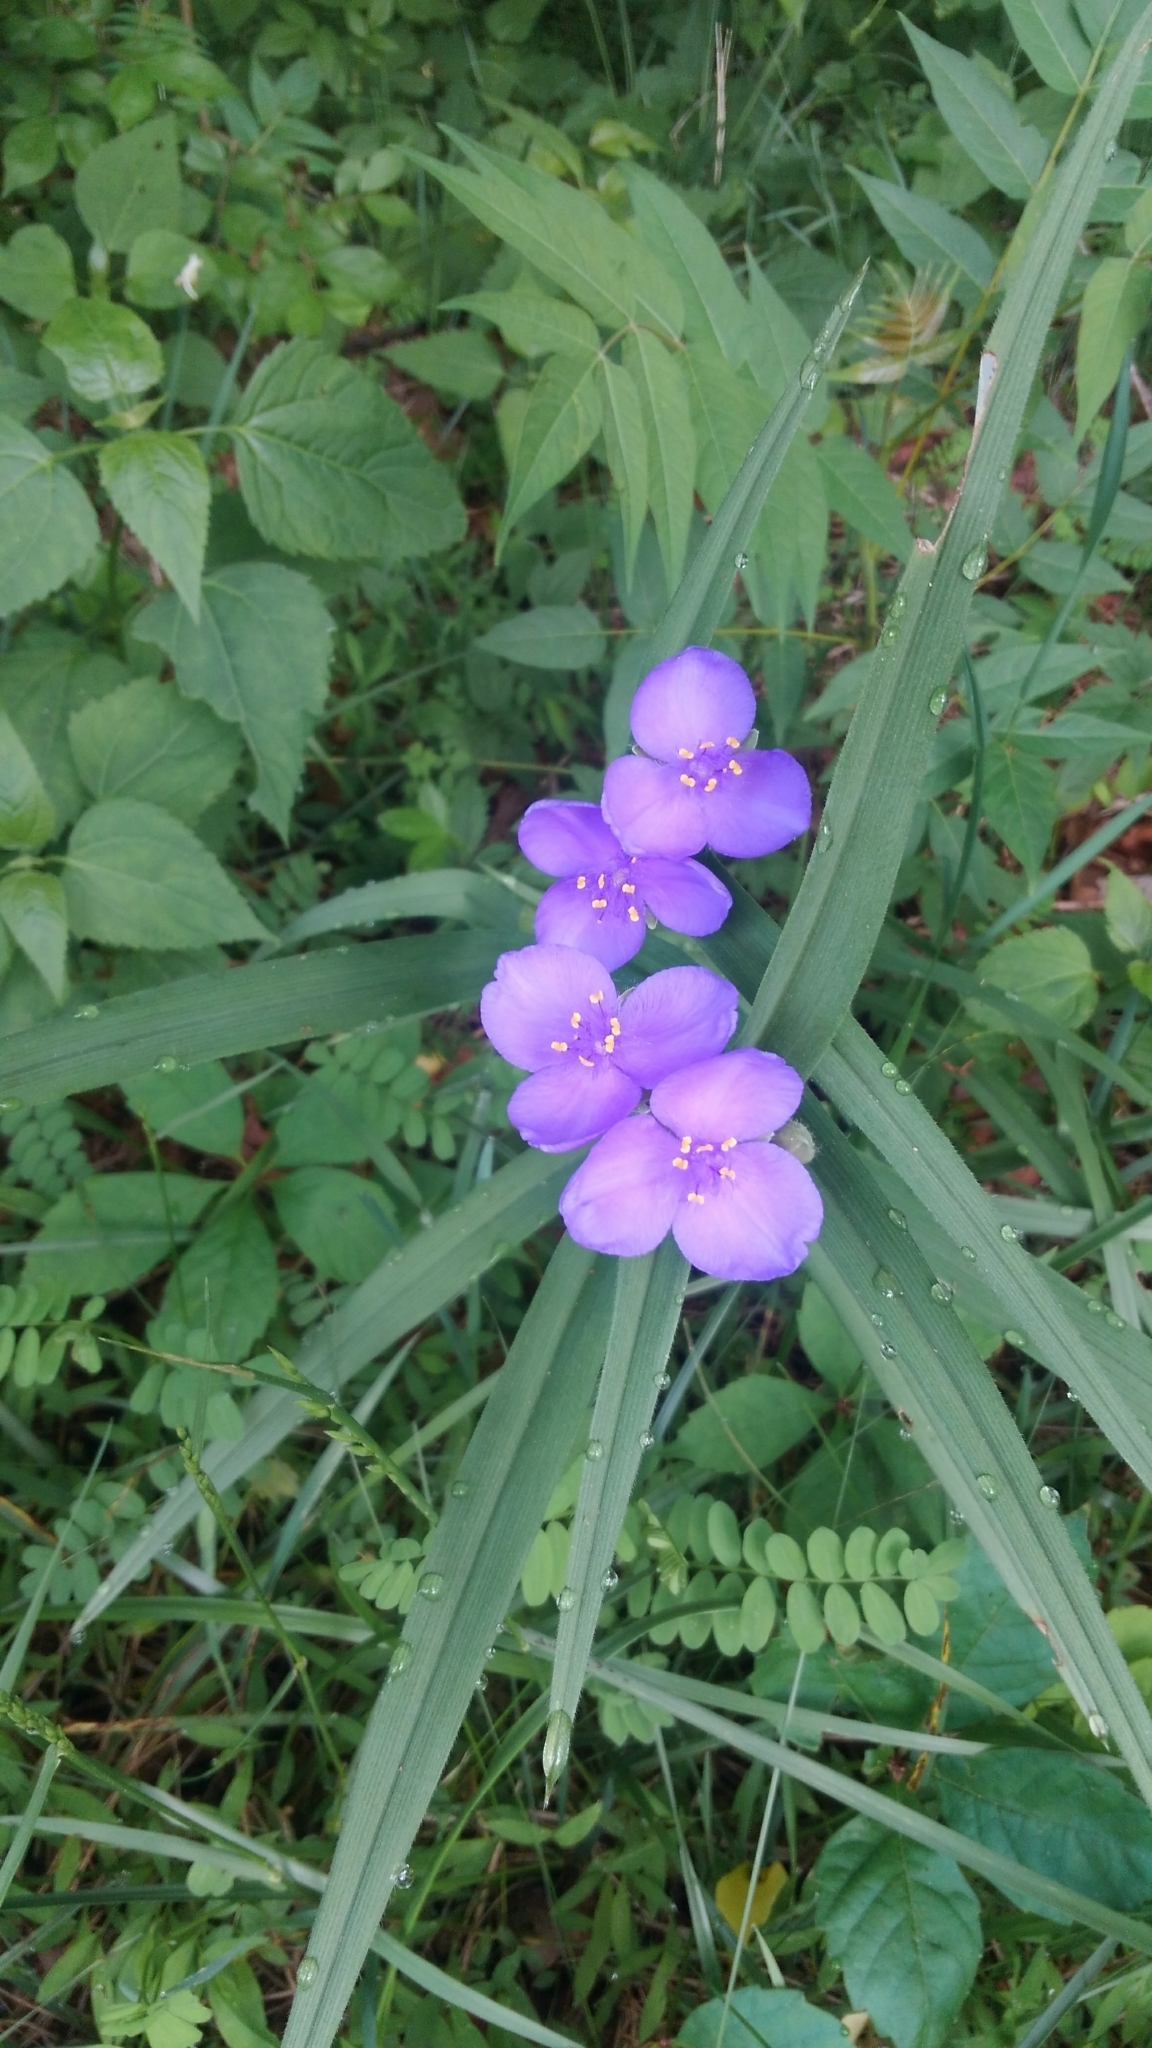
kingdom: Plantae
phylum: Tracheophyta
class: Liliopsida
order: Commelinales
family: Commelinaceae
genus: Tradescantia
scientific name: Tradescantia virginiana
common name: Spiderwort
